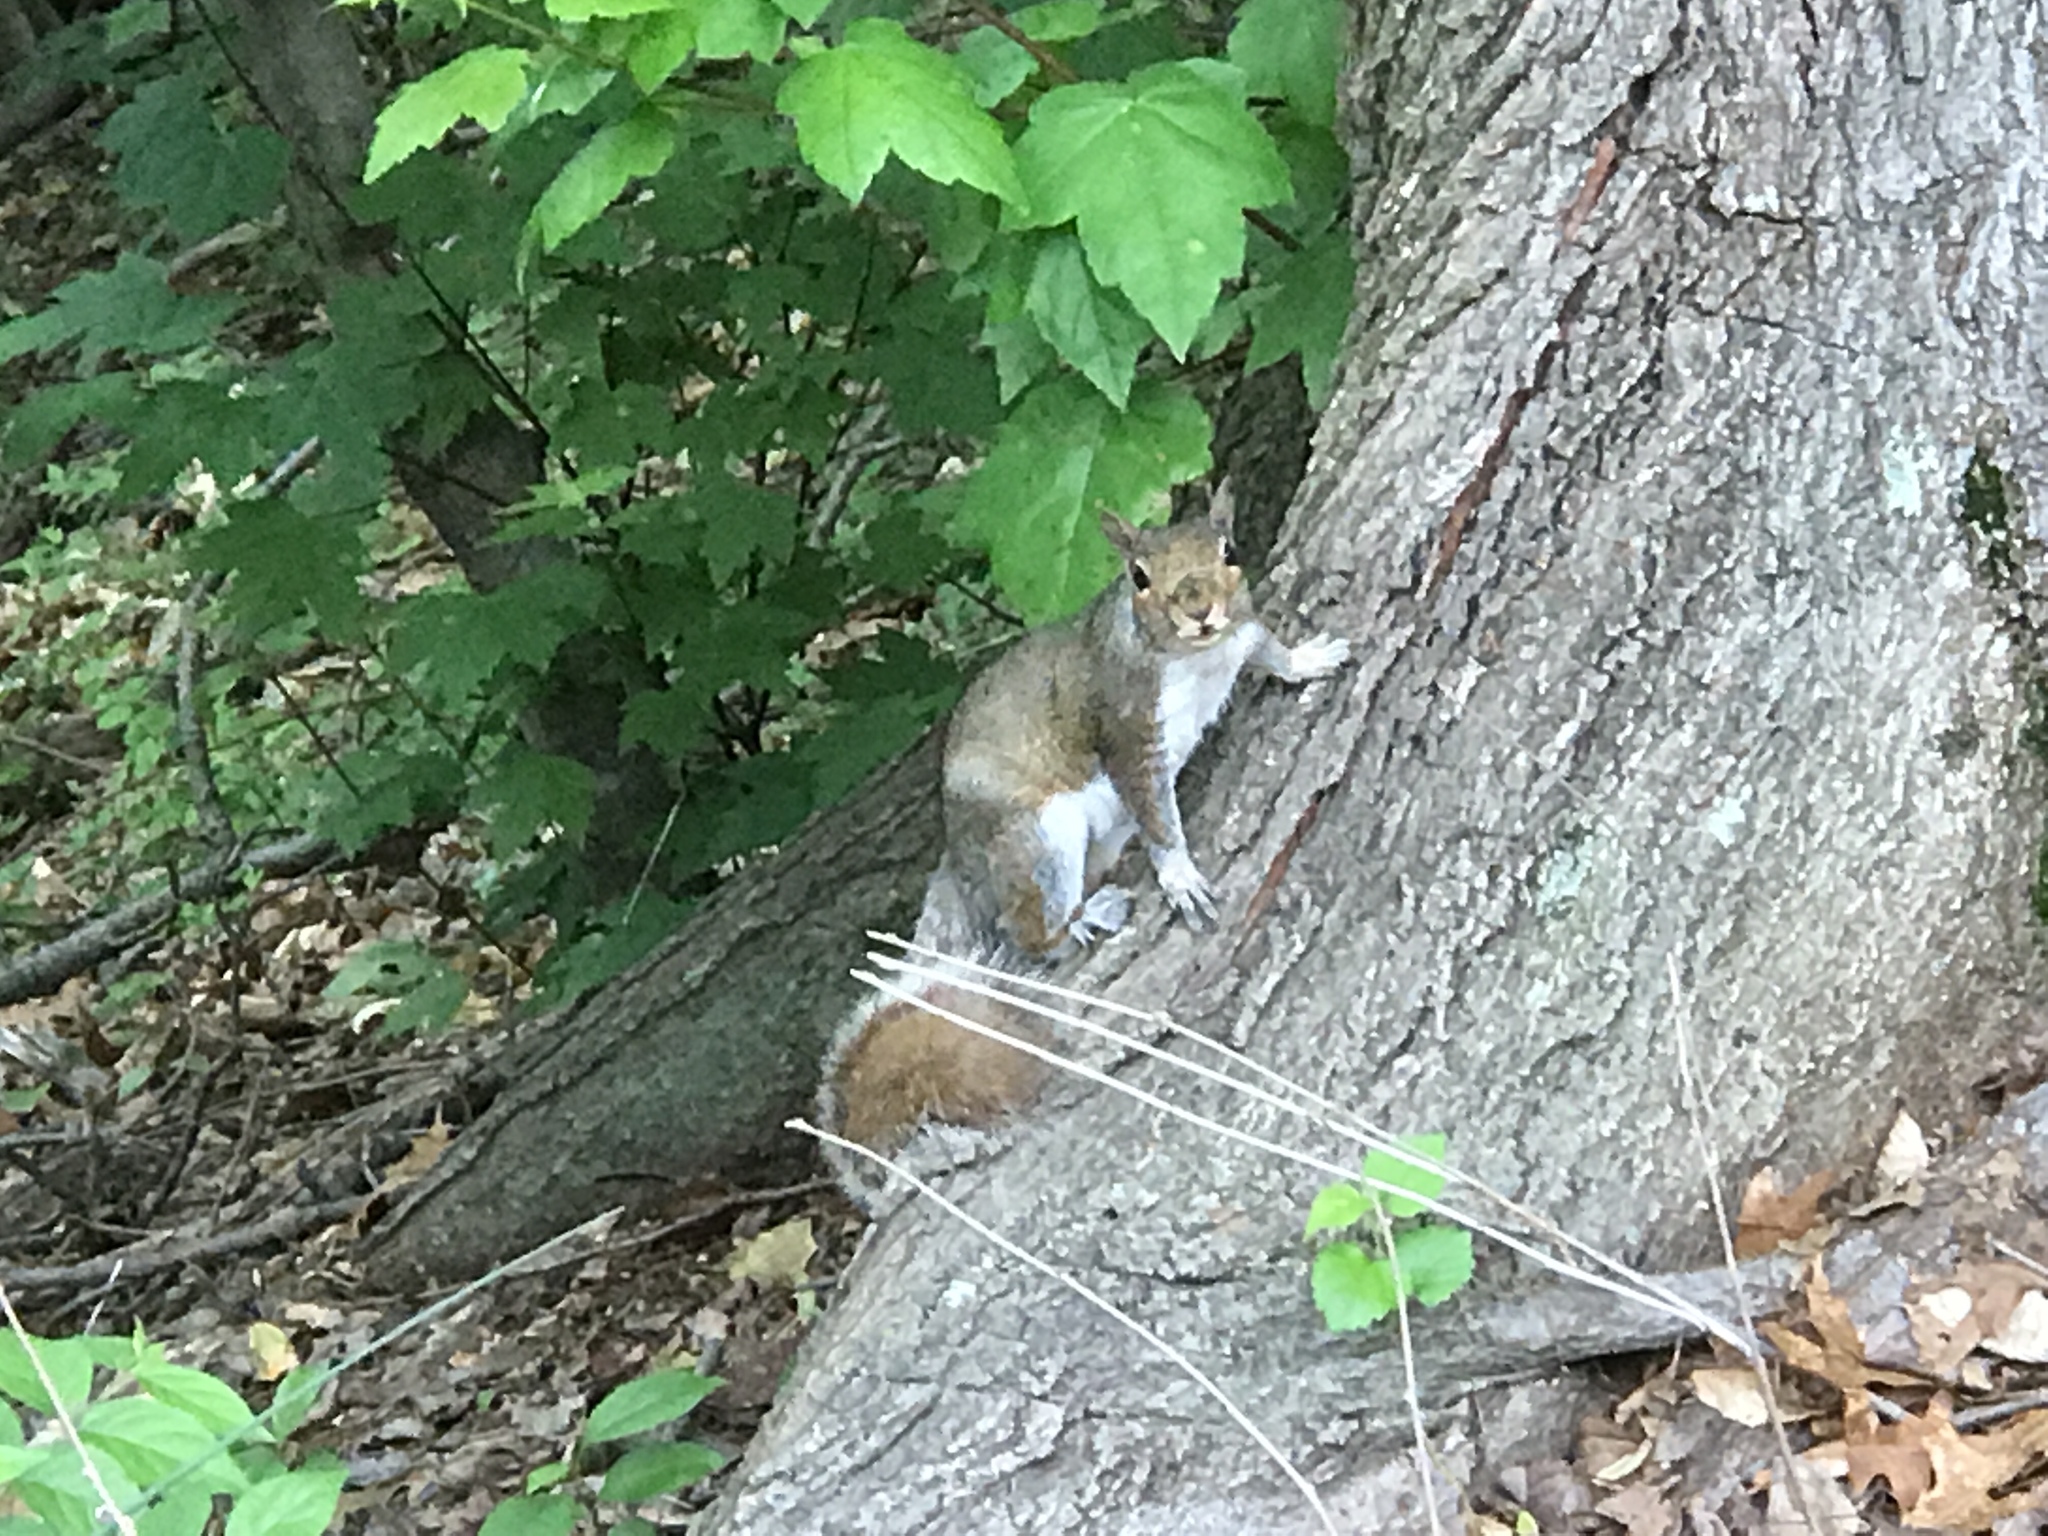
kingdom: Animalia
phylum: Chordata
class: Mammalia
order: Rodentia
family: Sciuridae
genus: Sciurus
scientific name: Sciurus carolinensis
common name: Eastern gray squirrel
